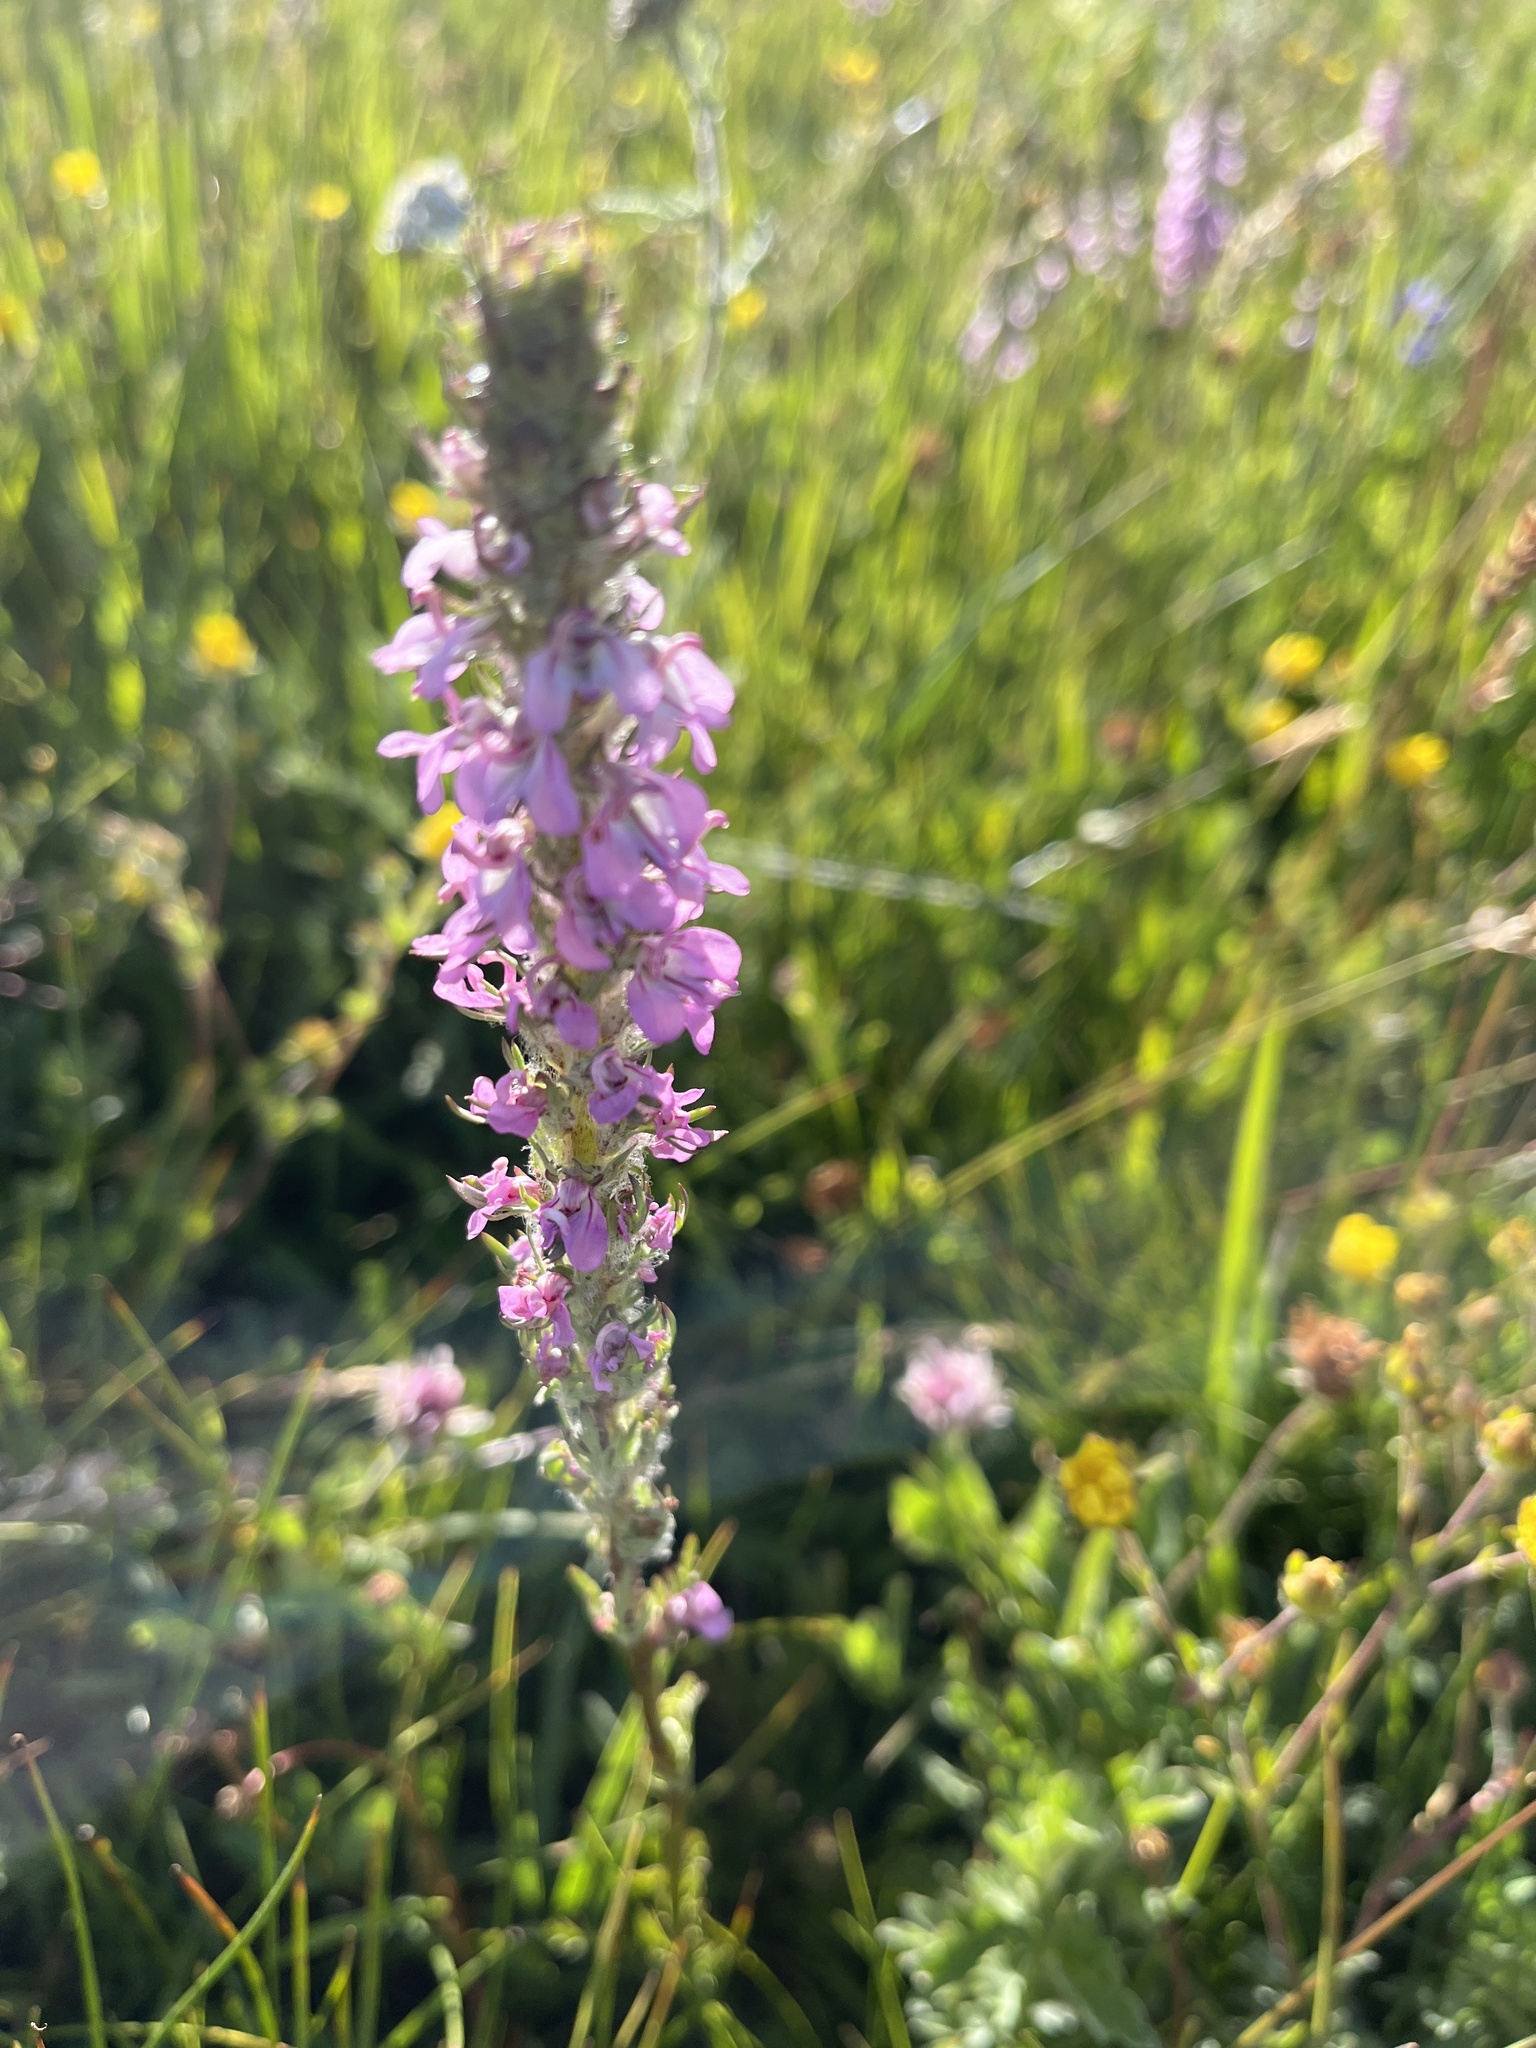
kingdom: Plantae
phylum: Tracheophyta
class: Magnoliopsida
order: Lamiales
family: Orobanchaceae
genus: Pedicularis
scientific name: Pedicularis attollens
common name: Slender pedicularis
